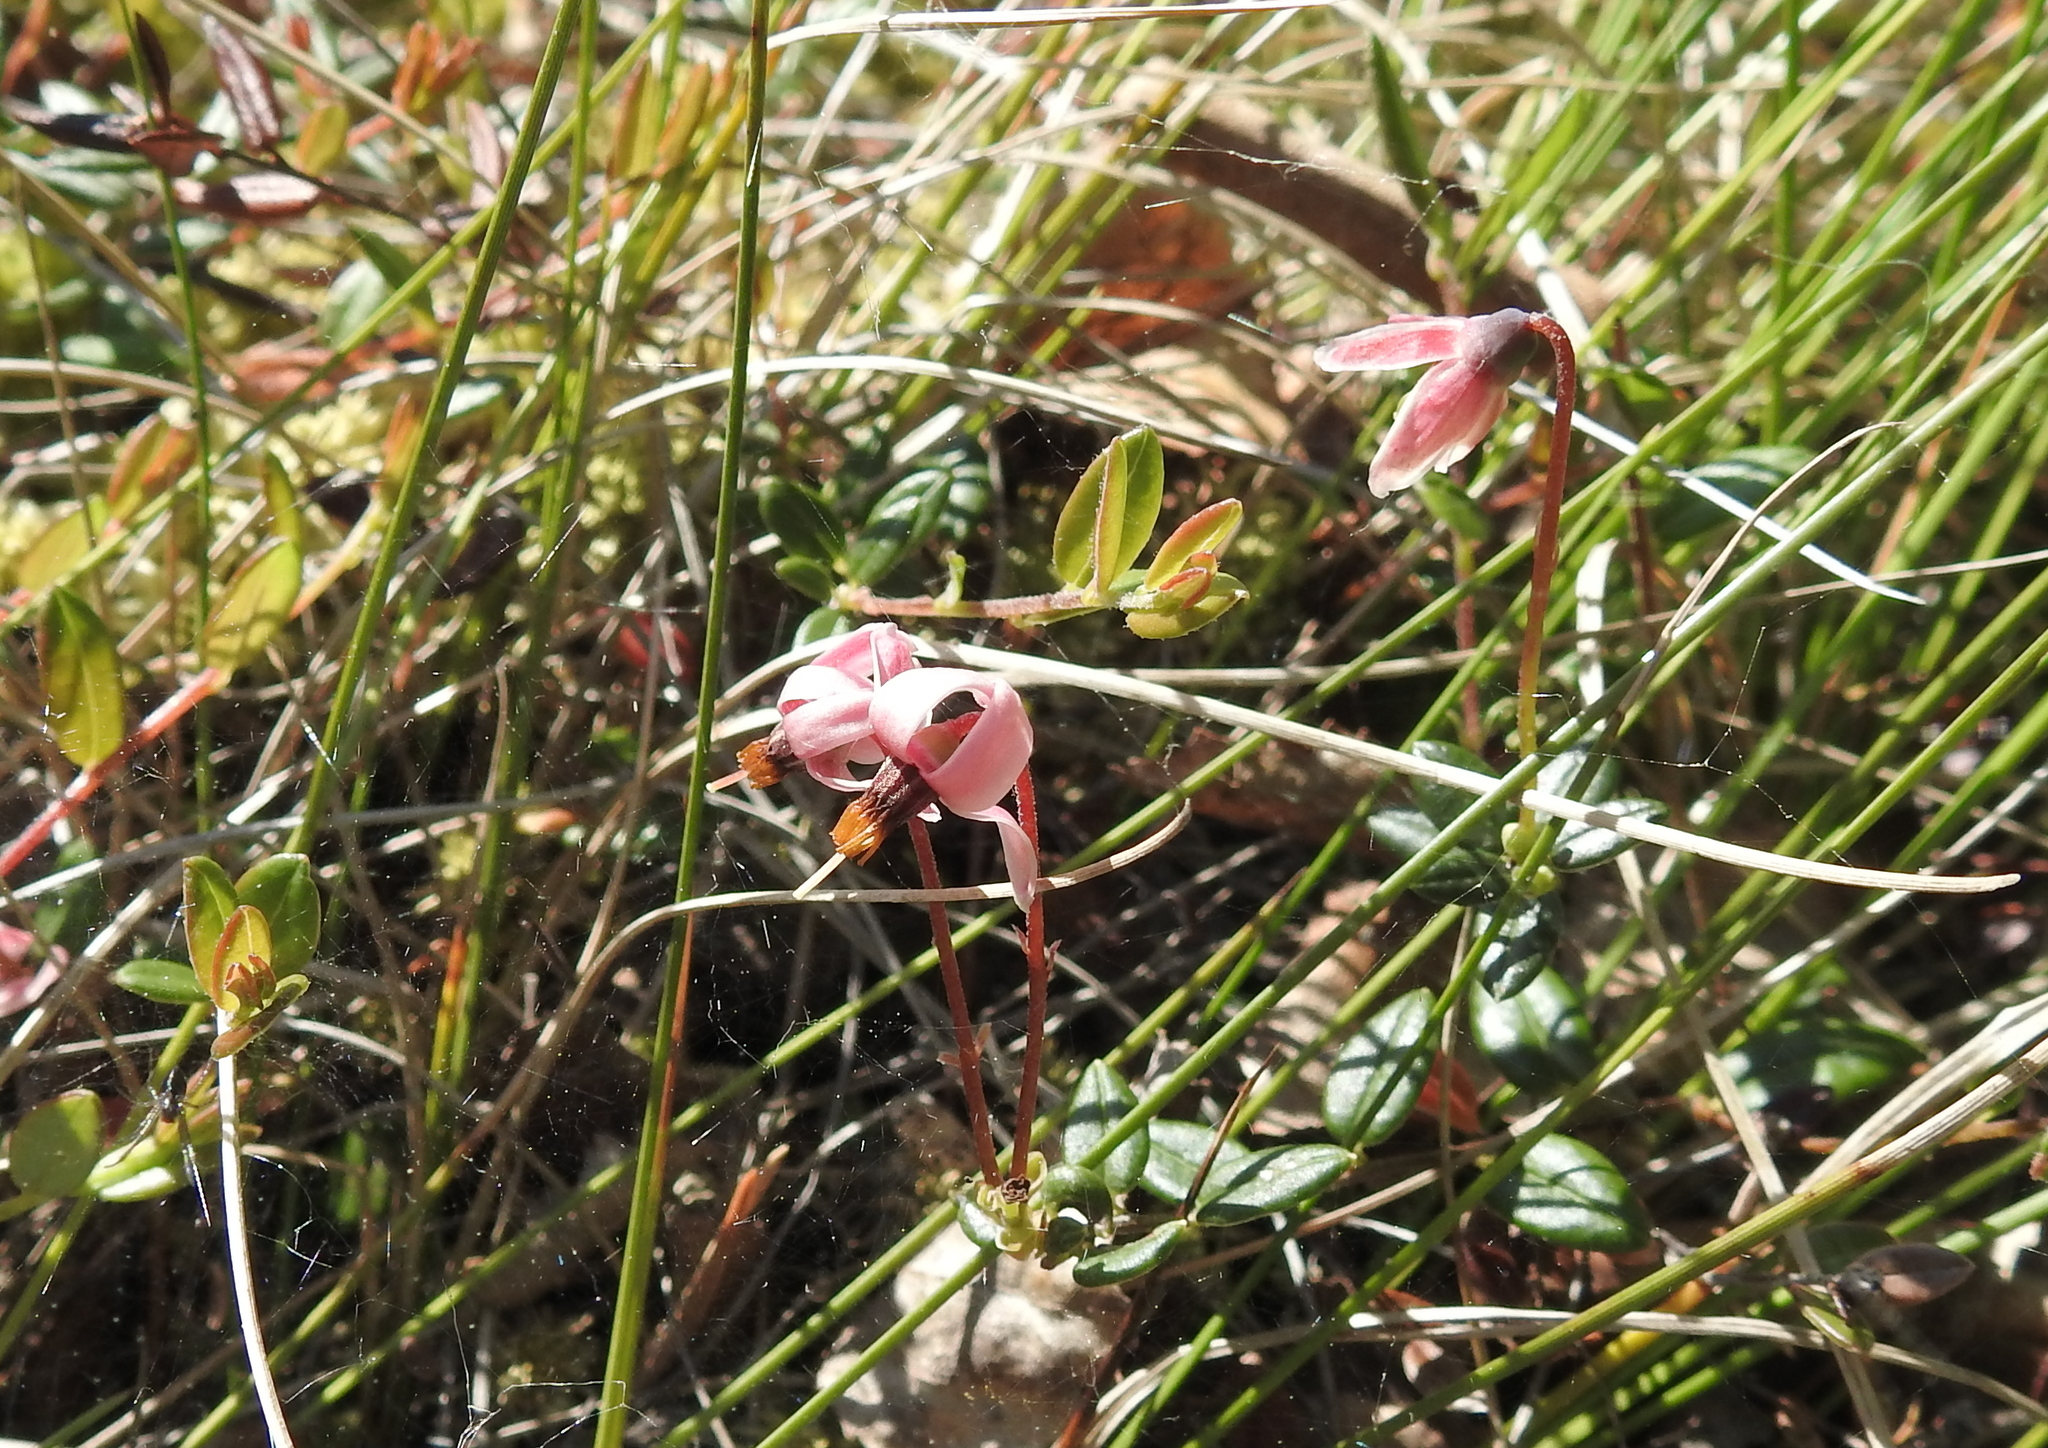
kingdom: Plantae
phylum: Tracheophyta
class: Magnoliopsida
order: Ericales
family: Ericaceae
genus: Vaccinium
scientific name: Vaccinium oxycoccos
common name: Cranberry
